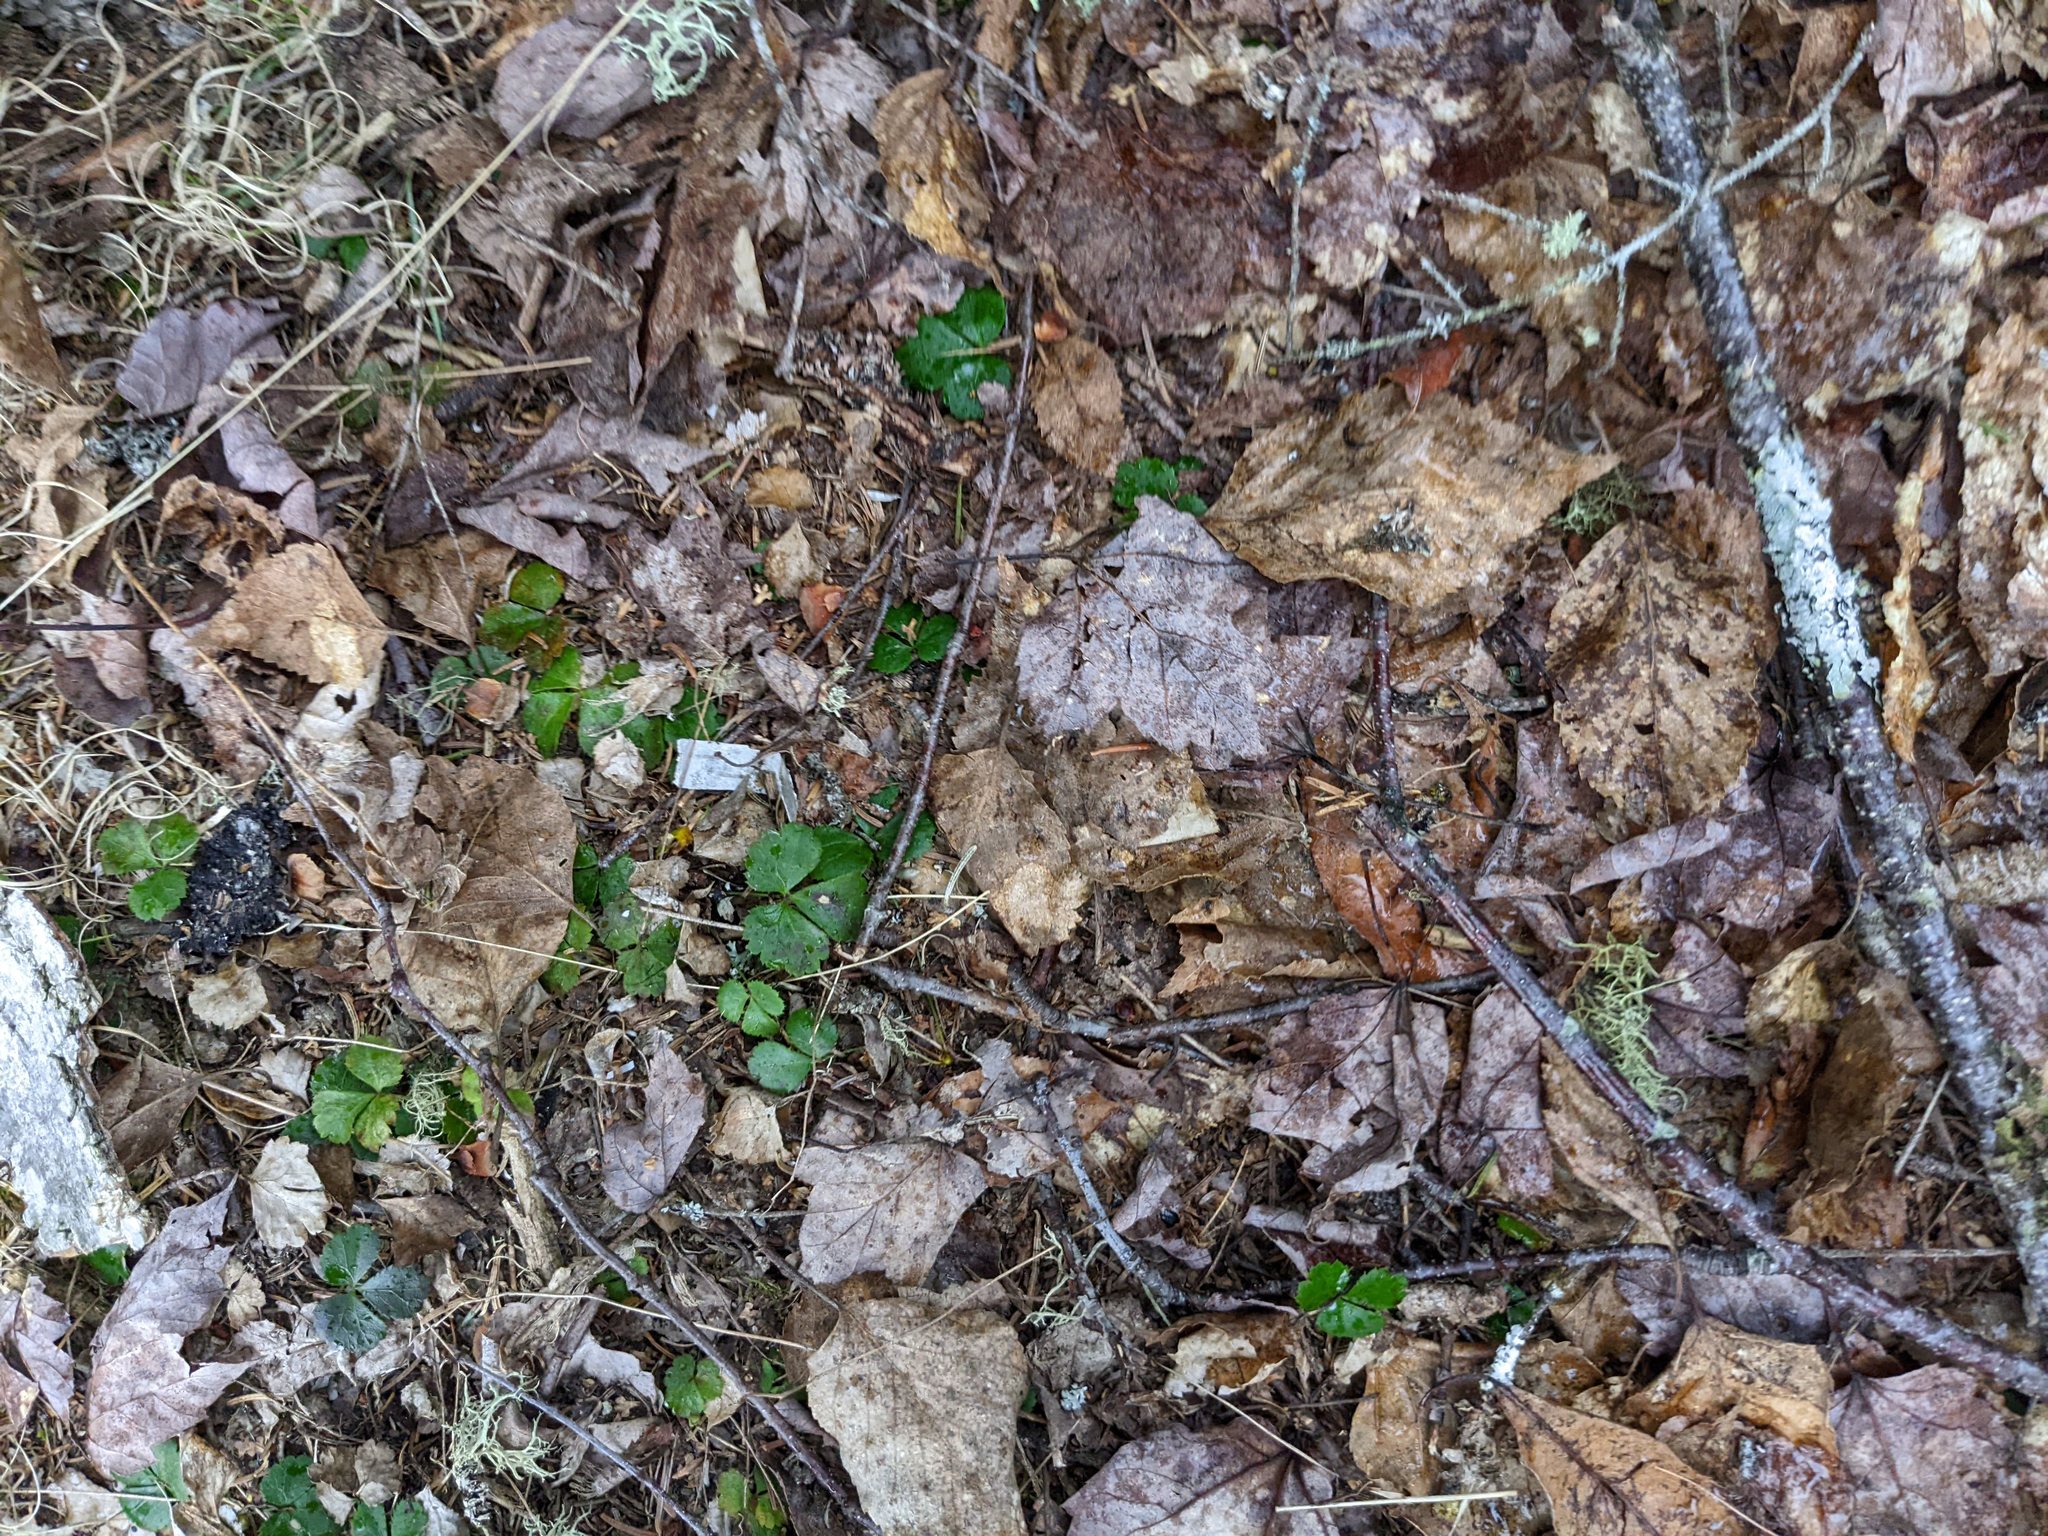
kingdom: Plantae
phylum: Tracheophyta
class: Magnoliopsida
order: Ranunculales
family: Ranunculaceae
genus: Coptis
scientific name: Coptis trifolia
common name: Canker-root
